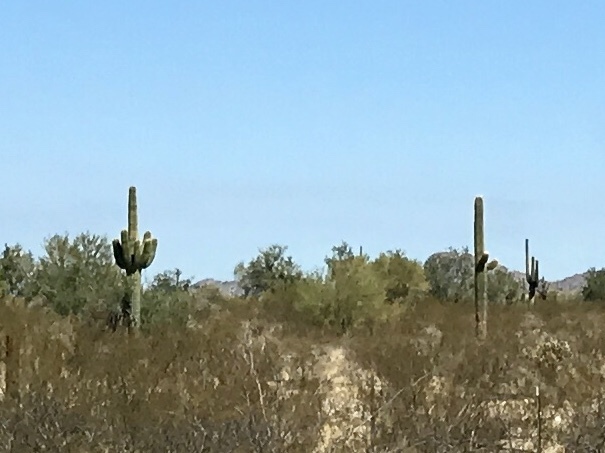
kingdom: Plantae
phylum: Tracheophyta
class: Magnoliopsida
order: Caryophyllales
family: Cactaceae
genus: Carnegiea
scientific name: Carnegiea gigantea
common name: Saguaro
